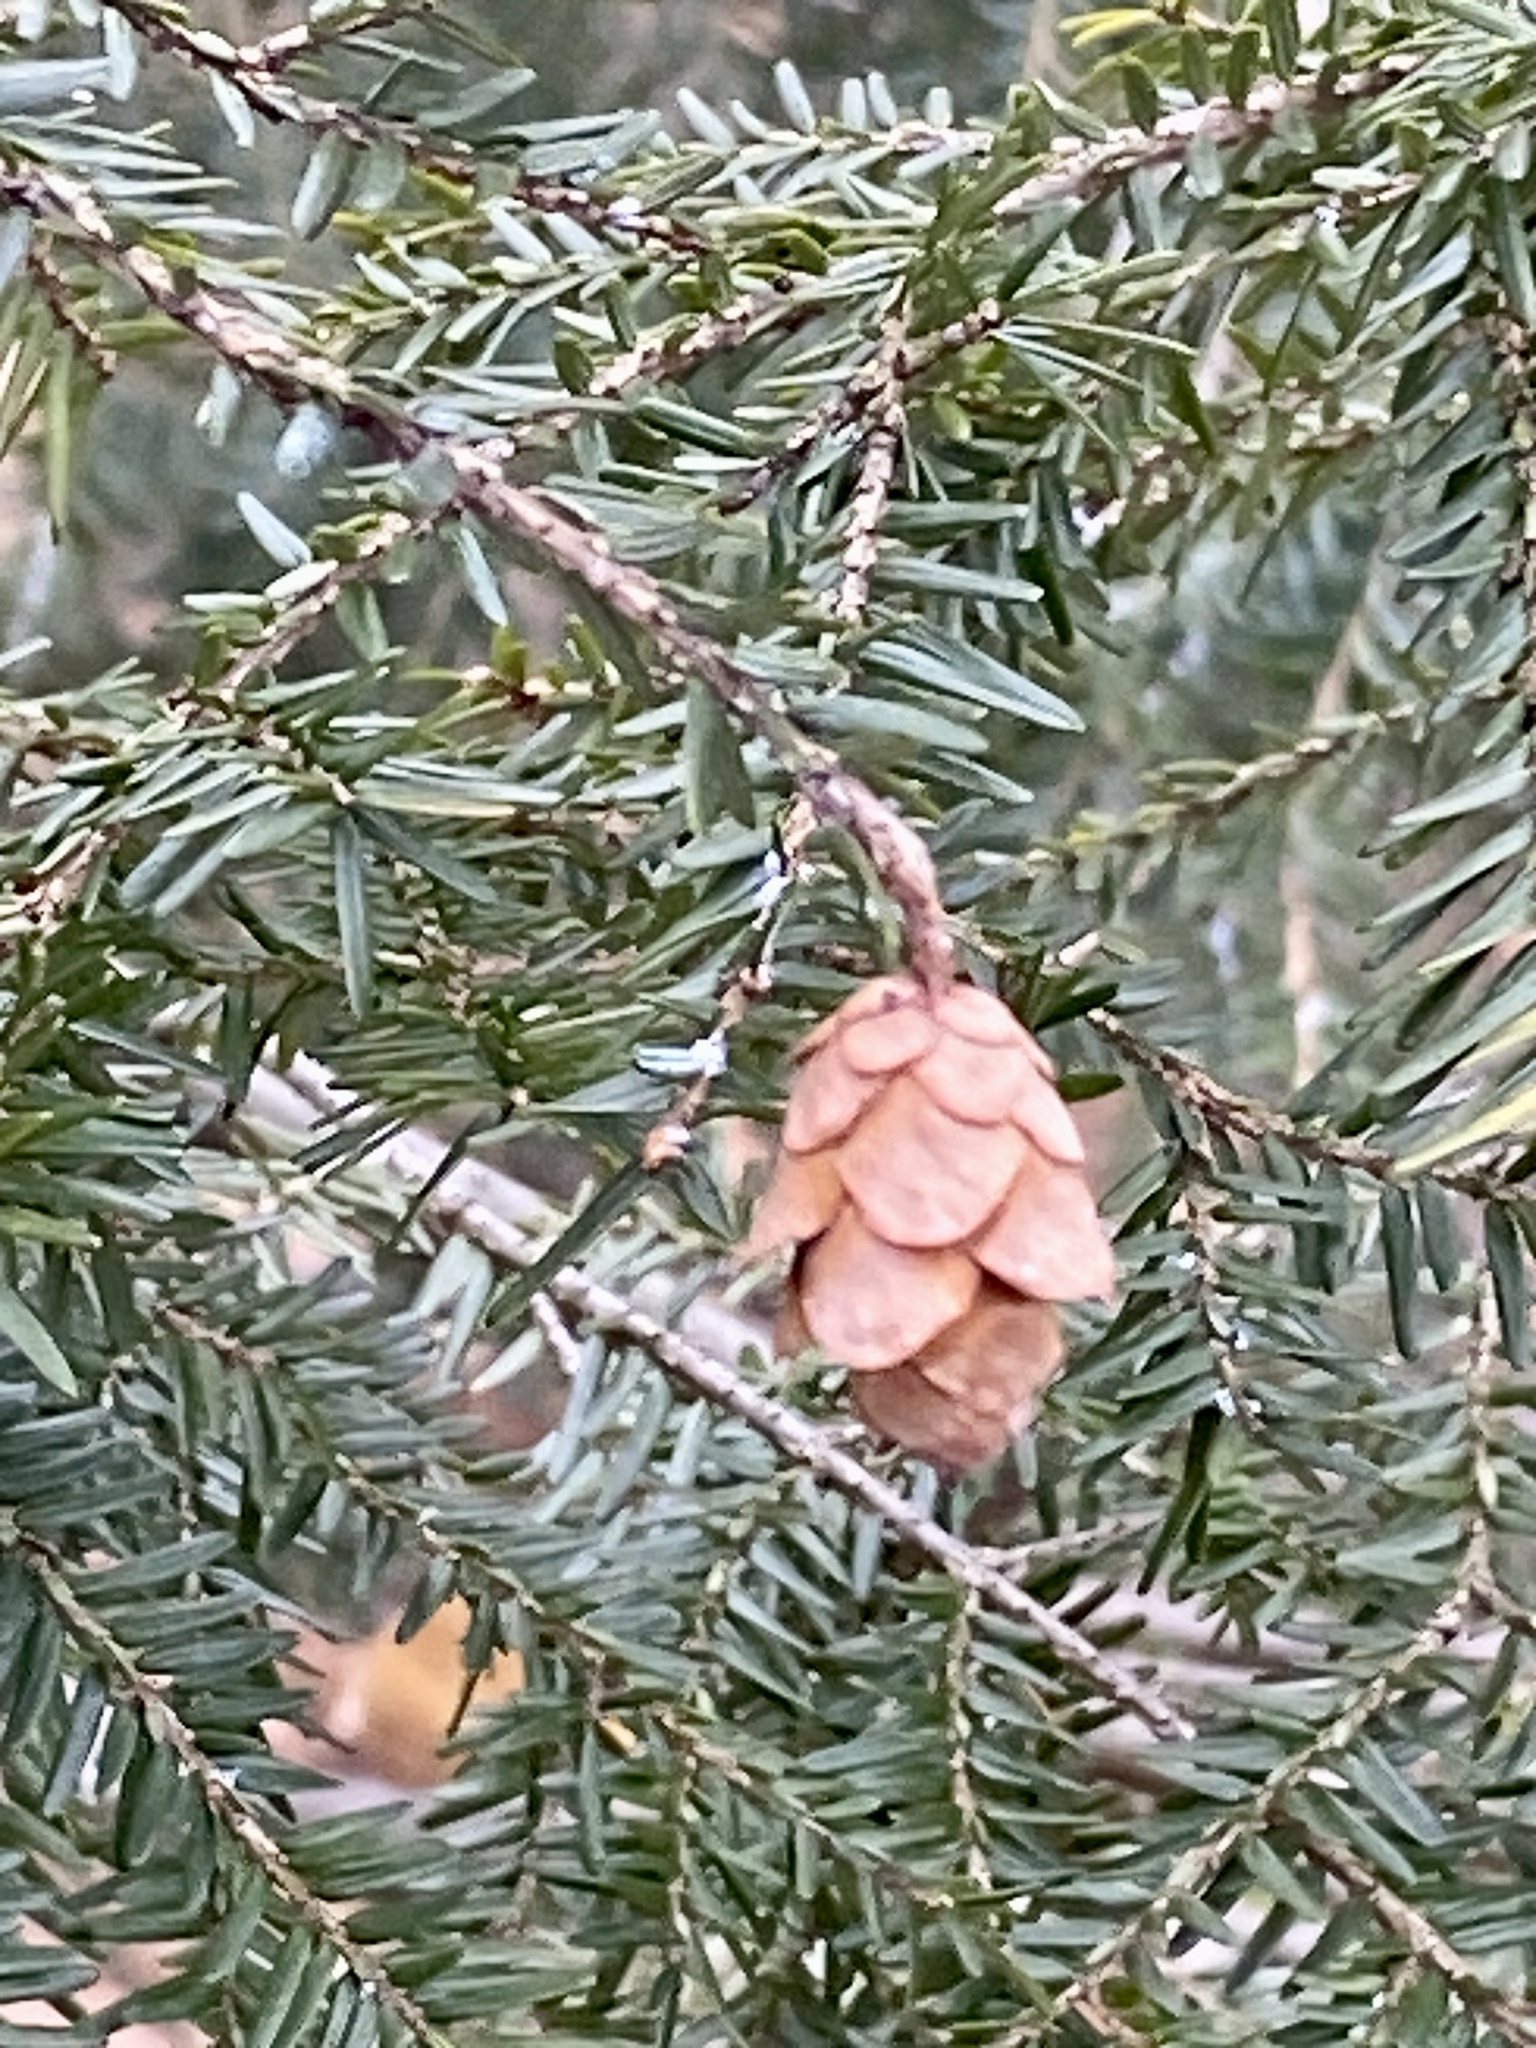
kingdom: Plantae
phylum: Tracheophyta
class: Pinopsida
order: Pinales
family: Pinaceae
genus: Tsuga
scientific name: Tsuga canadensis
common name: Eastern hemlock
